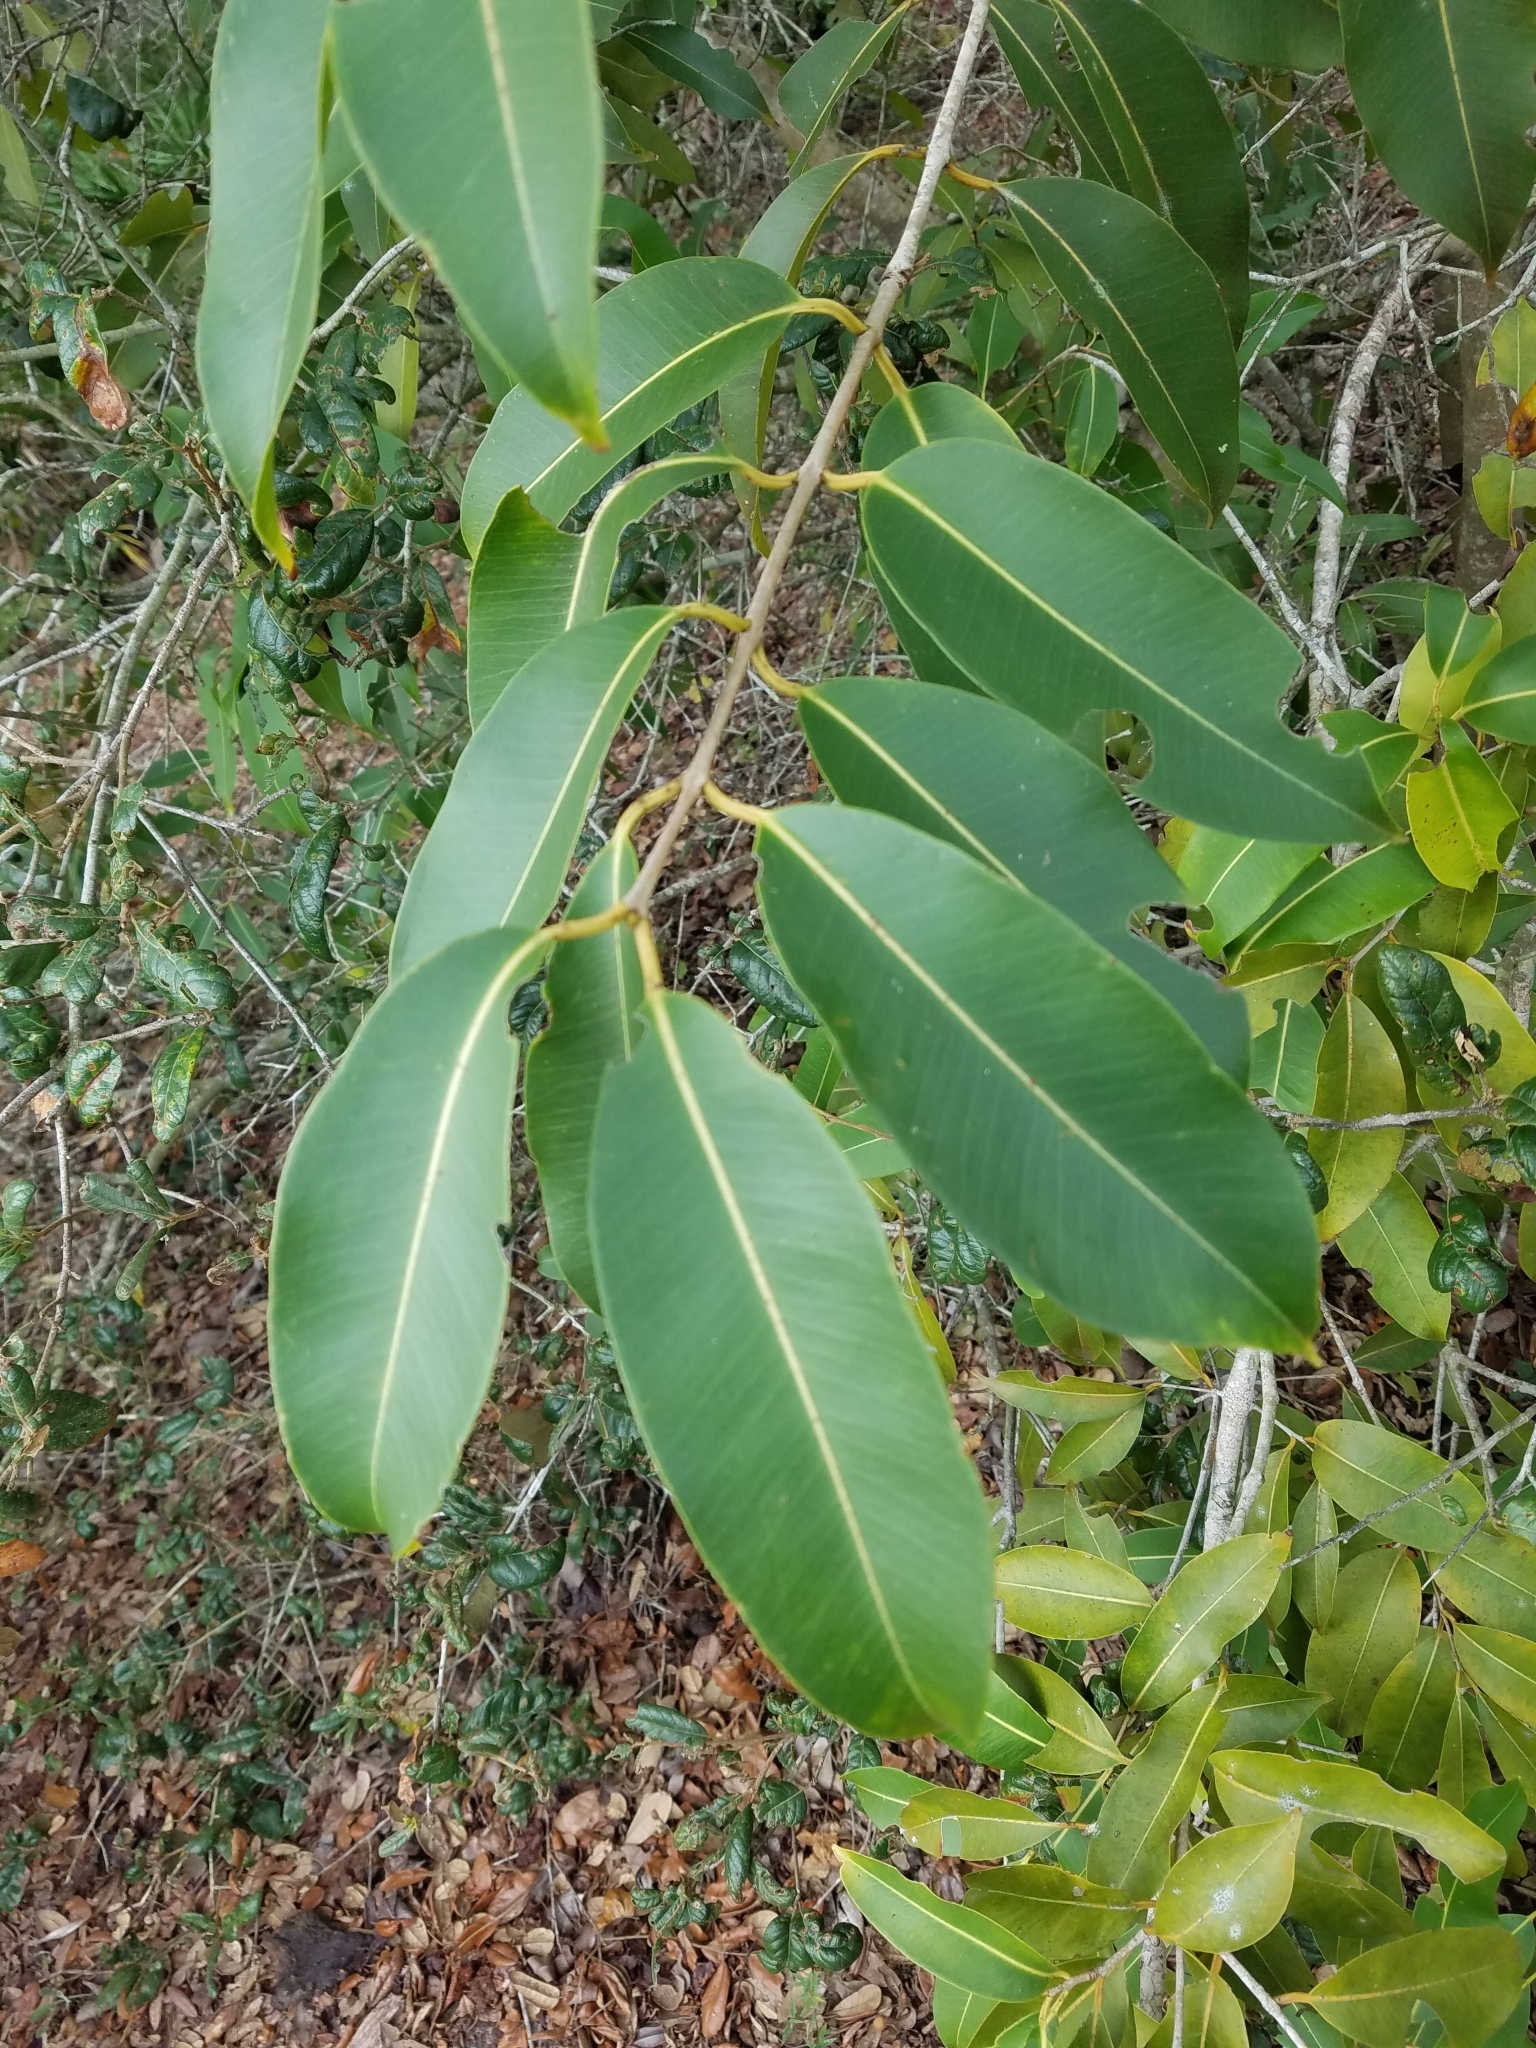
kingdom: Plantae
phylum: Tracheophyta
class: Magnoliopsida
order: Myrtales
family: Myrtaceae
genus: Syzygium
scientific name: Syzygium cumini
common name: Java plum
